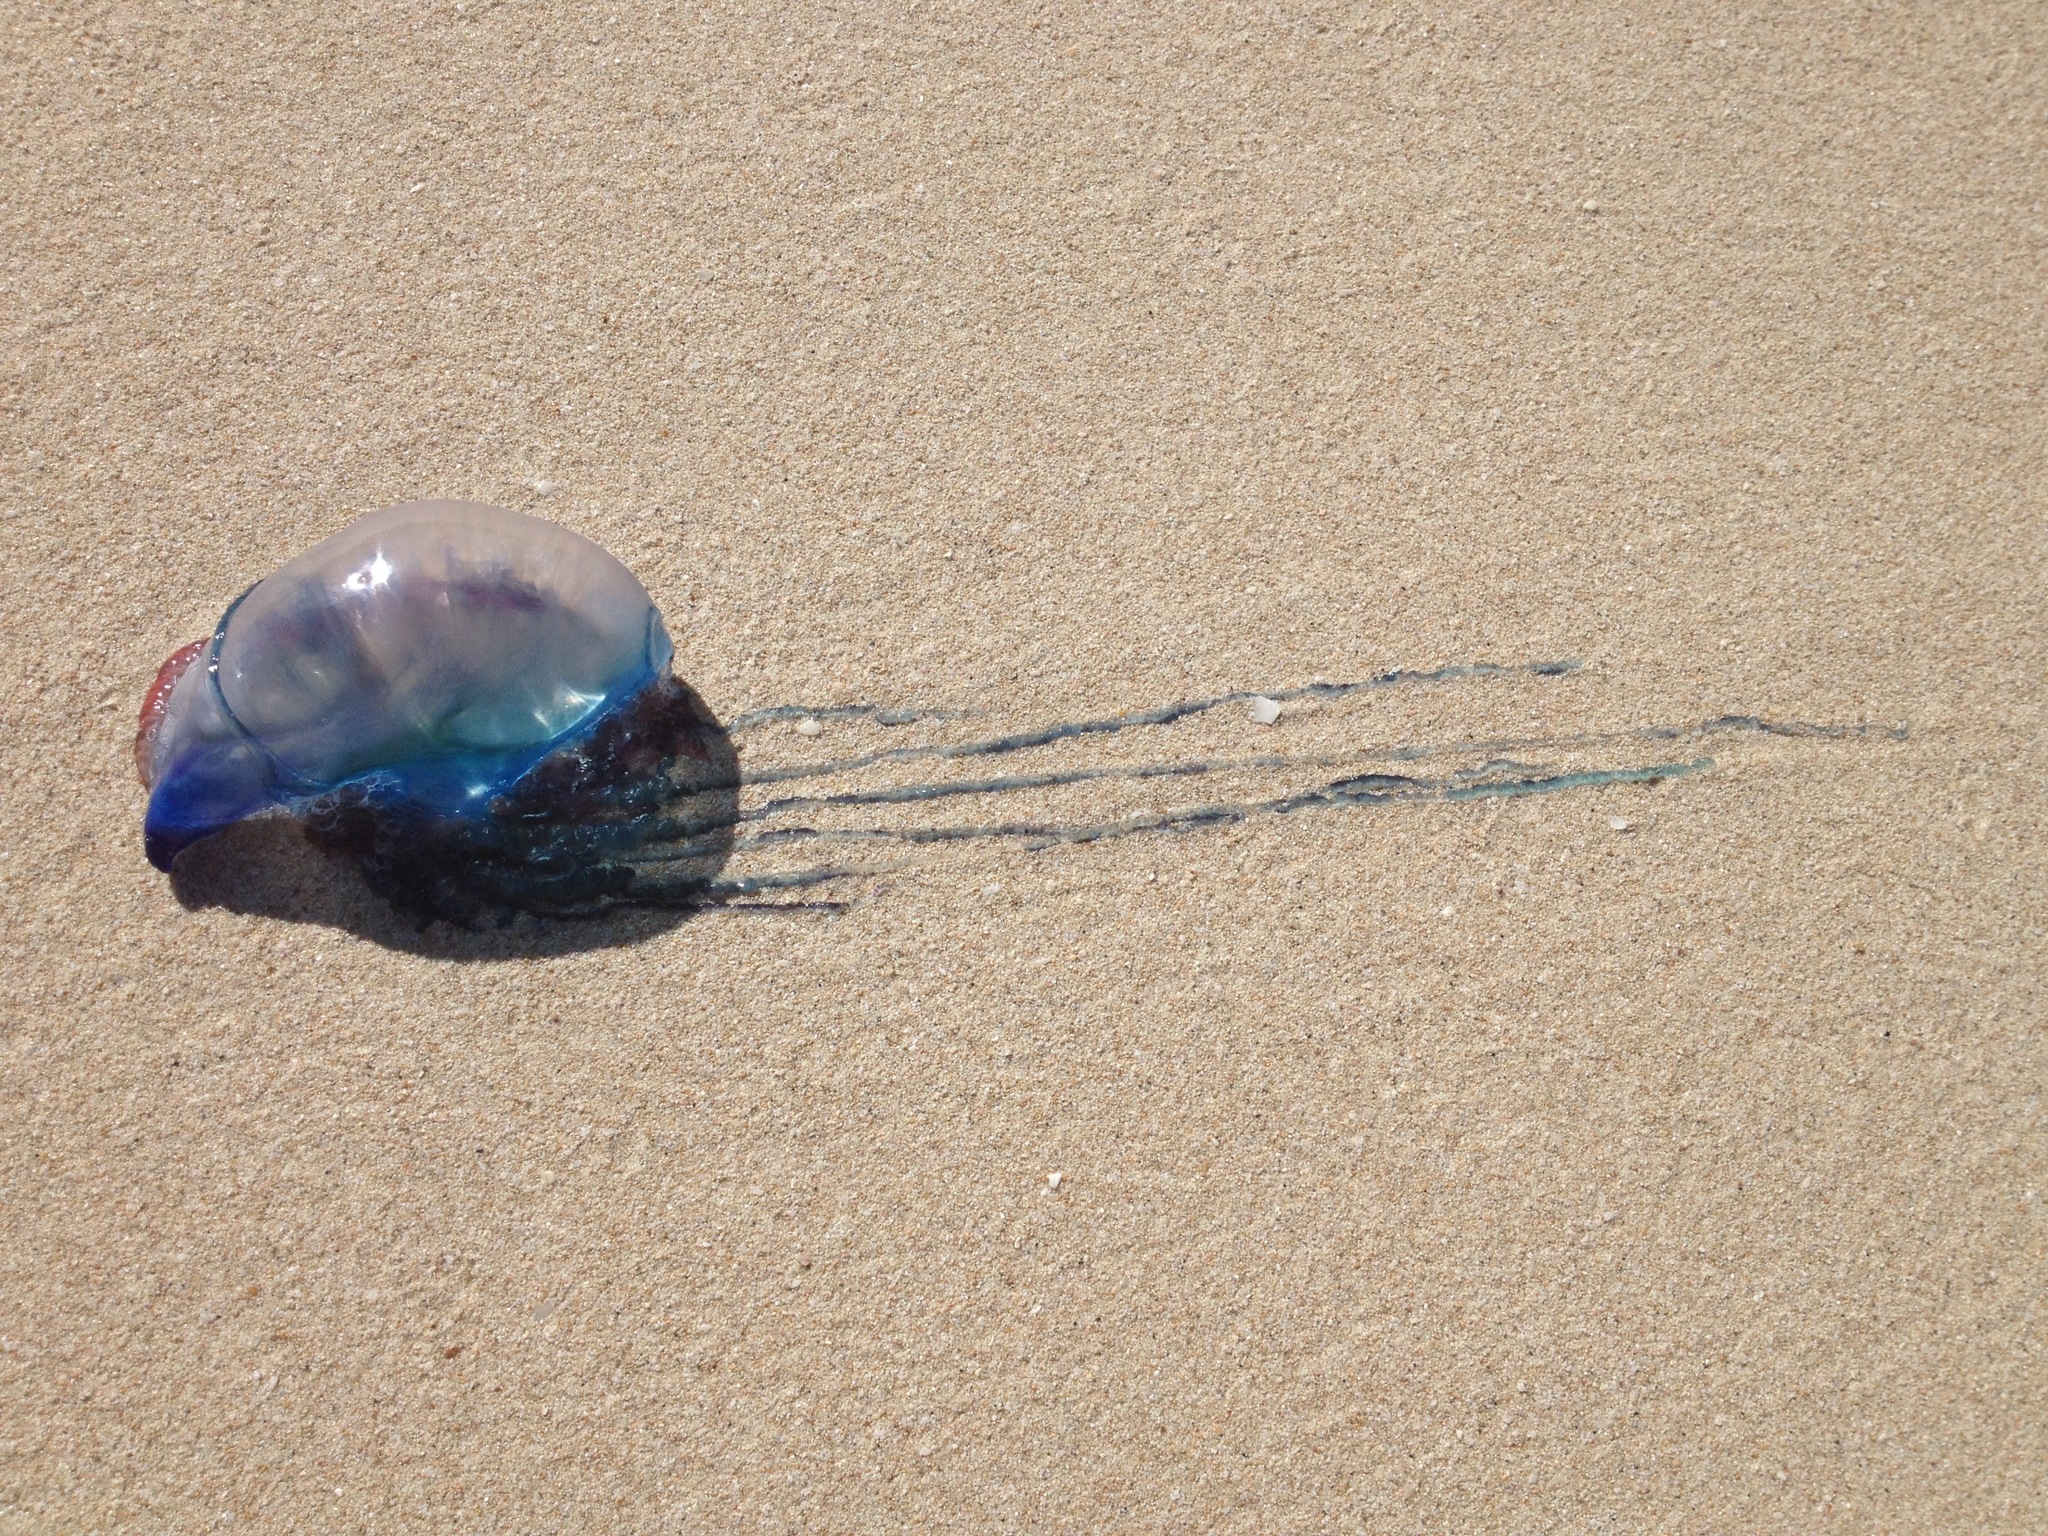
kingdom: Animalia
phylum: Cnidaria
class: Hydrozoa
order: Siphonophorae
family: Physaliidae
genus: Physalia
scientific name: Physalia physalis
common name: Portuguese man-of-war
